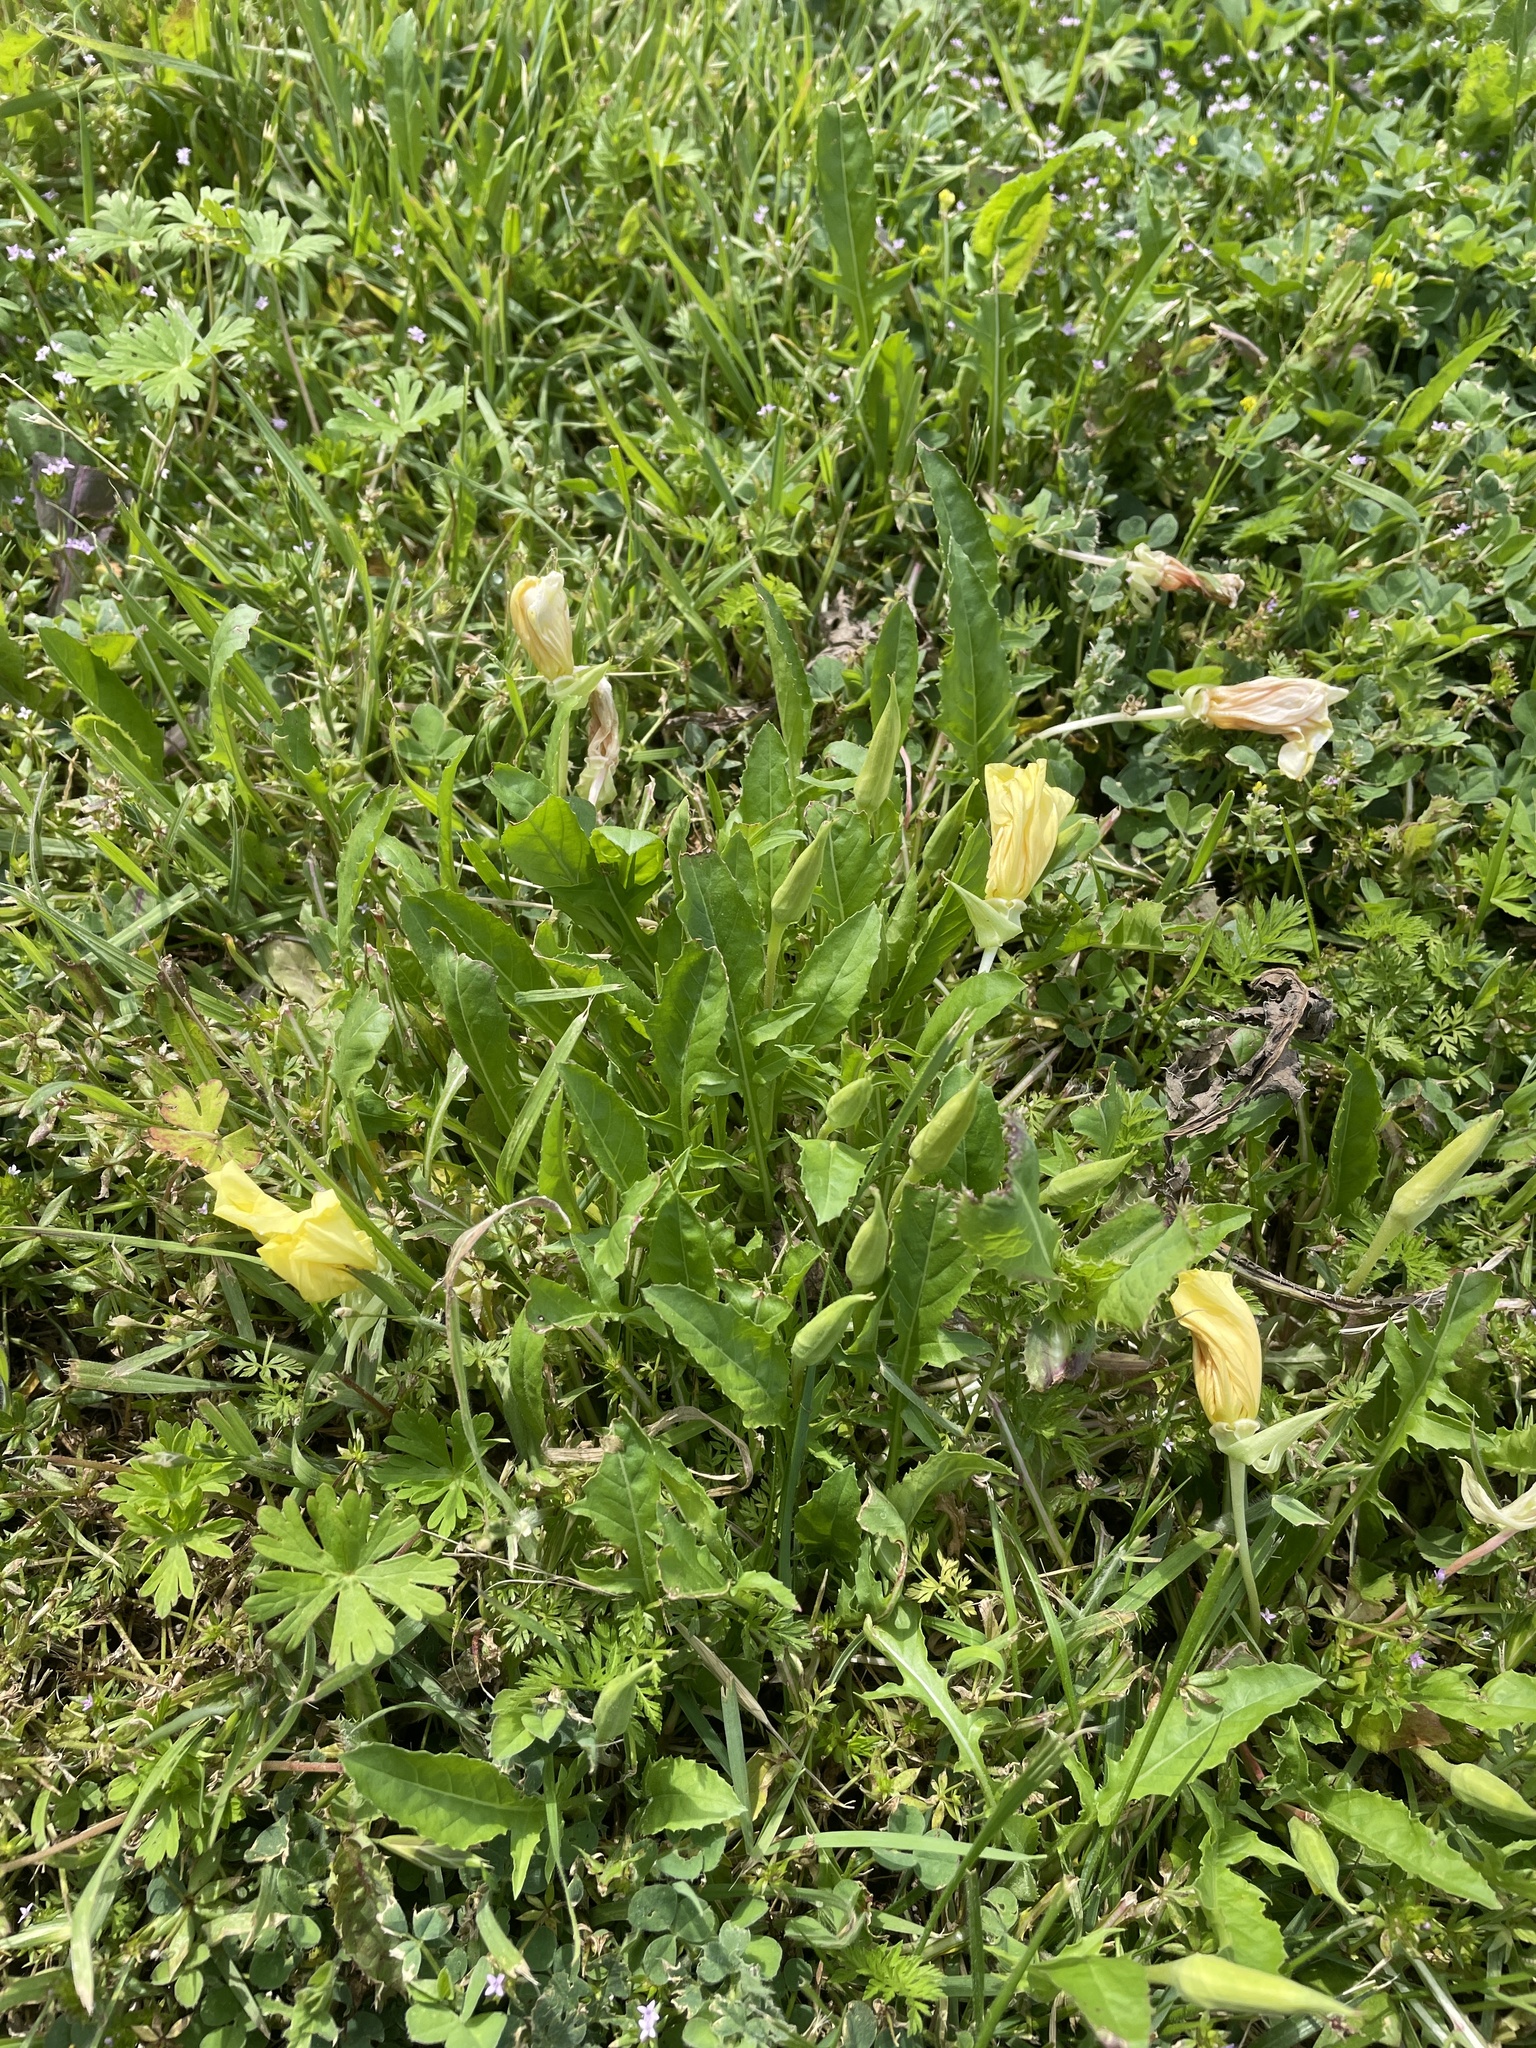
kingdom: Plantae
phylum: Tracheophyta
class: Magnoliopsida
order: Myrtales
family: Onagraceae
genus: Oenothera
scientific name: Oenothera triloba
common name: Sessile evening-primrose
